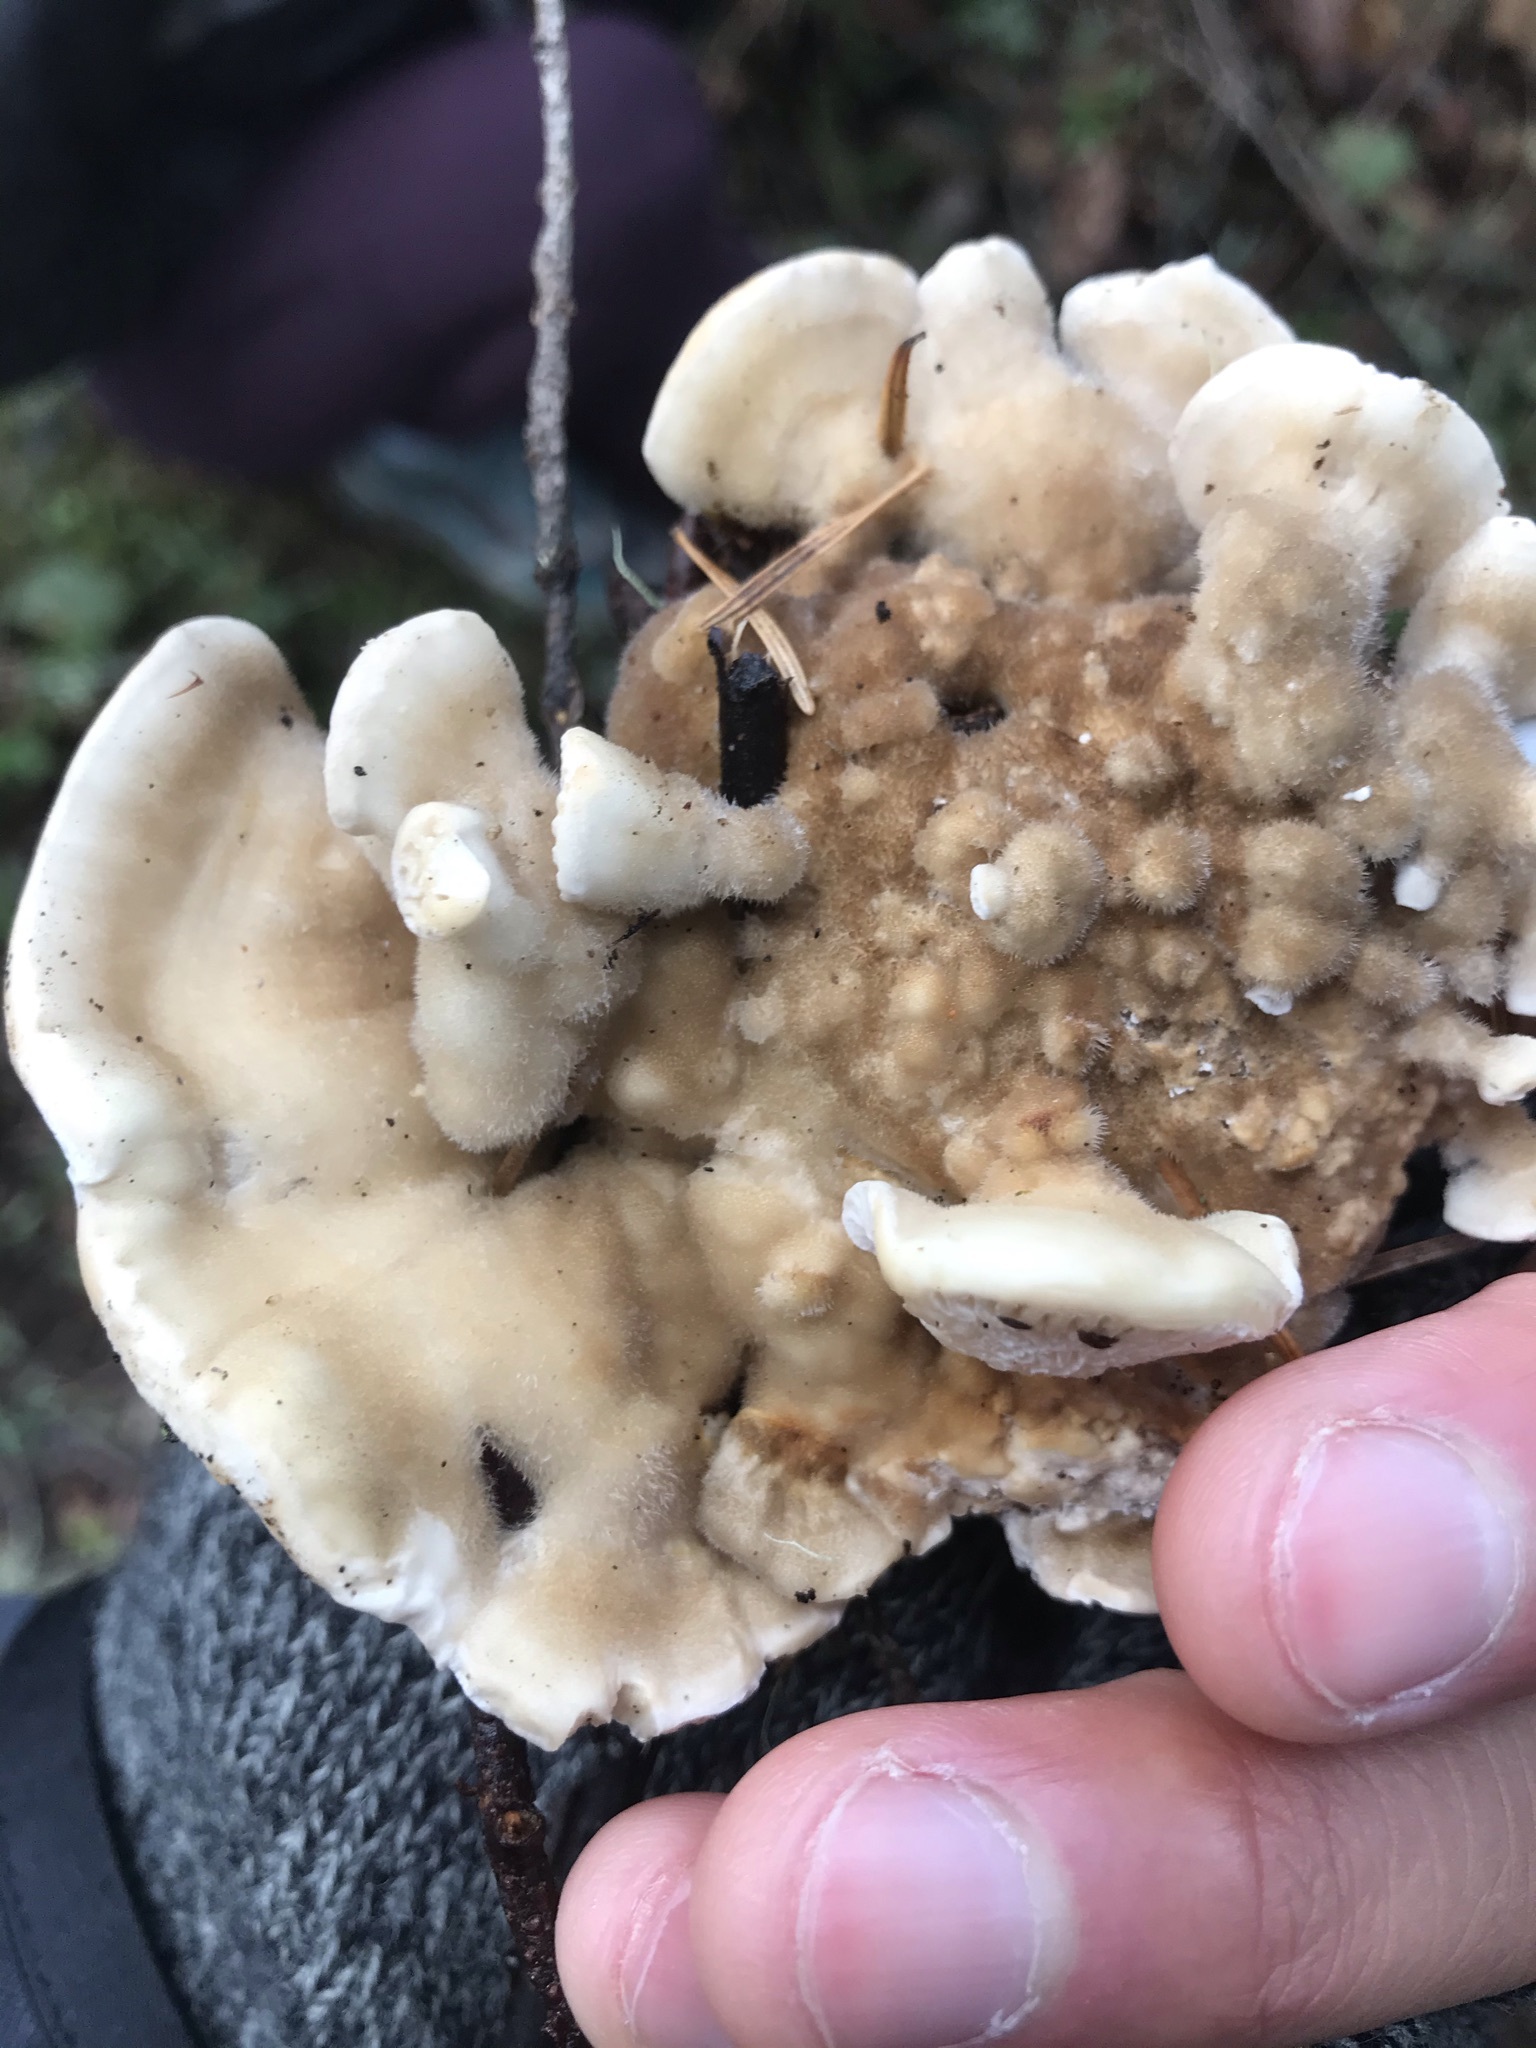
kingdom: Fungi
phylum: Basidiomycota
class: Agaricomycetes
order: Polyporales
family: Polyporaceae
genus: Lenzites
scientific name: Lenzites betulinus
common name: Birch mazegill
